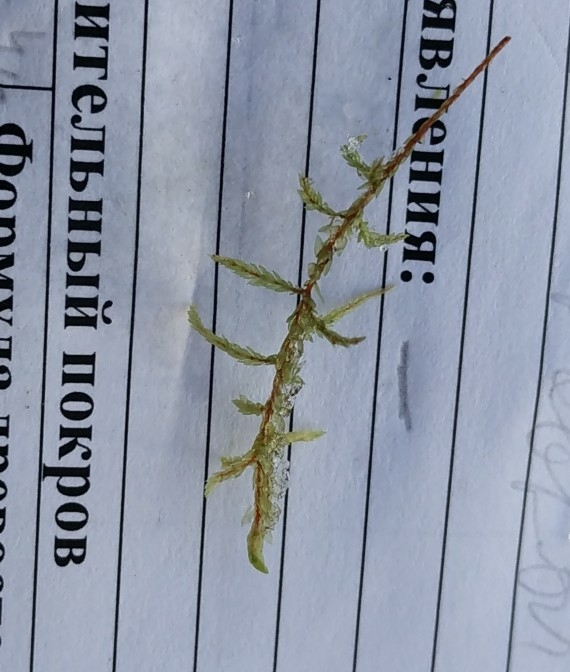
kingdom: Plantae
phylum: Bryophyta
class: Bryopsida
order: Hypnales
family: Hylocomiaceae
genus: Pleurozium
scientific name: Pleurozium schreberi
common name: Red-stemmed feather moss
